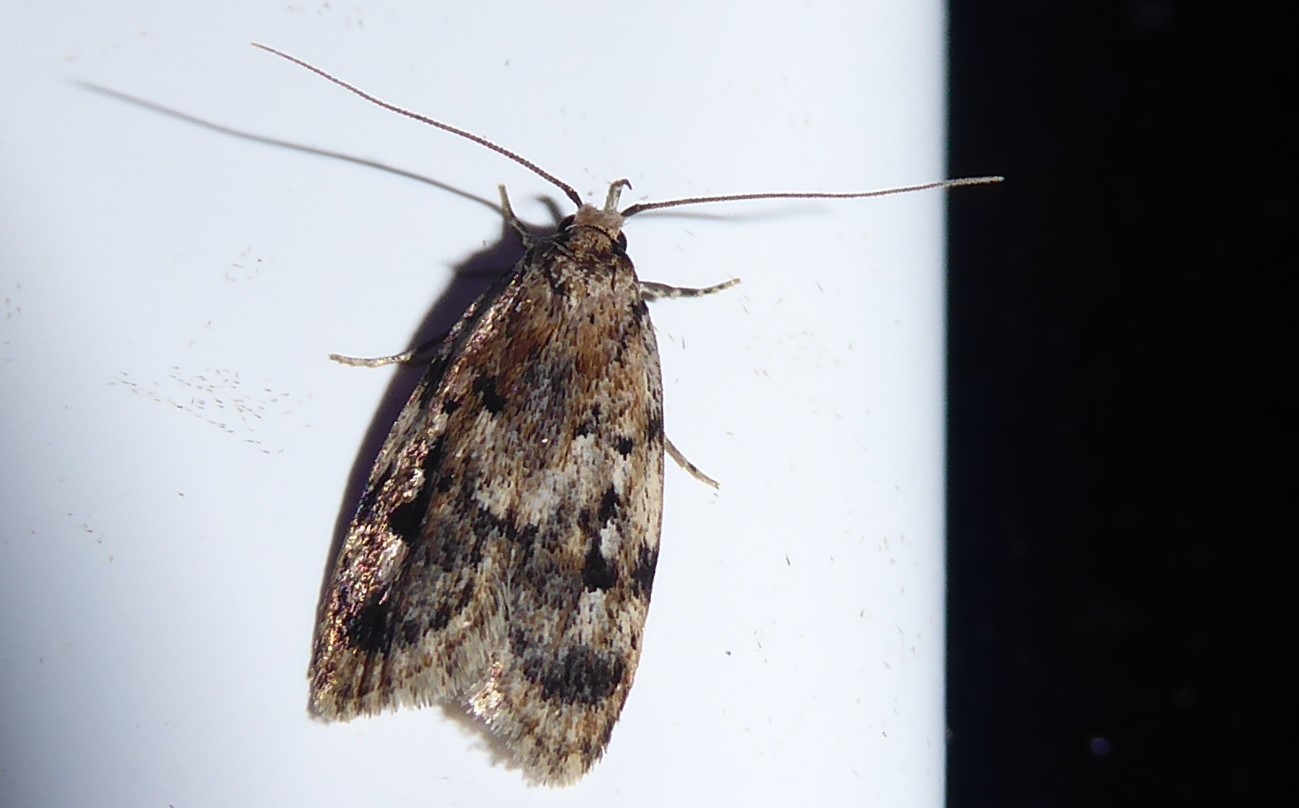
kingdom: Animalia
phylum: Arthropoda
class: Insecta
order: Lepidoptera
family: Oecophoridae
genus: Barea
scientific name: Barea exarcha
